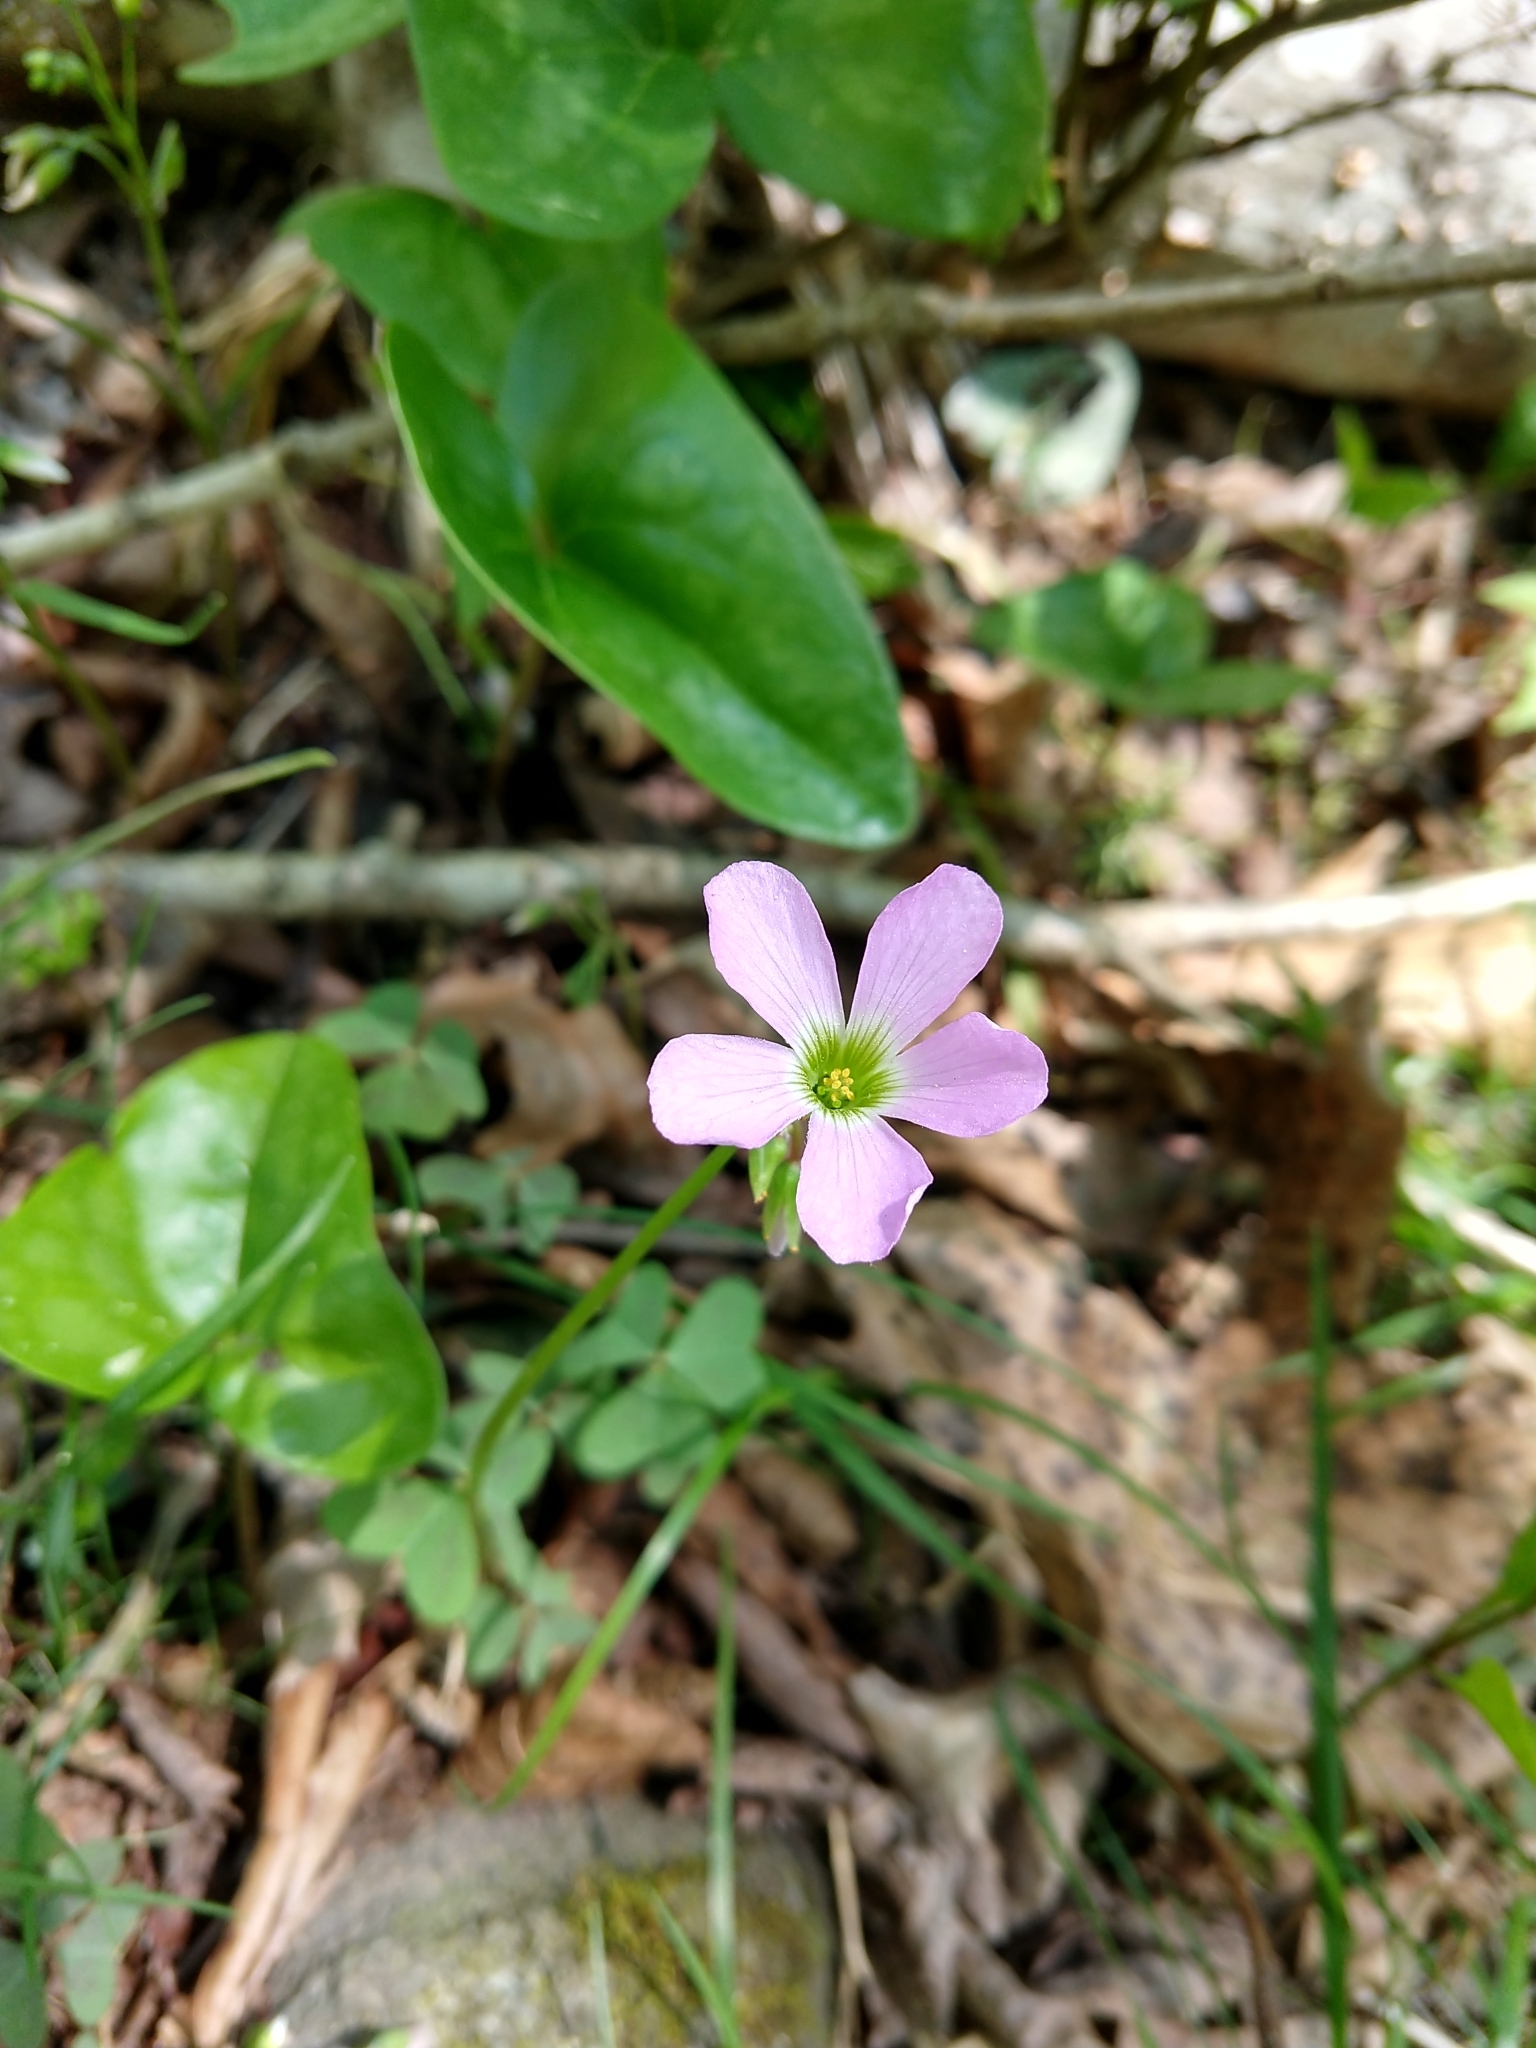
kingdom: Plantae
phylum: Tracheophyta
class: Magnoliopsida
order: Oxalidales
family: Oxalidaceae
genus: Oxalis
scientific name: Oxalis violacea
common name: Violet wood-sorrel
